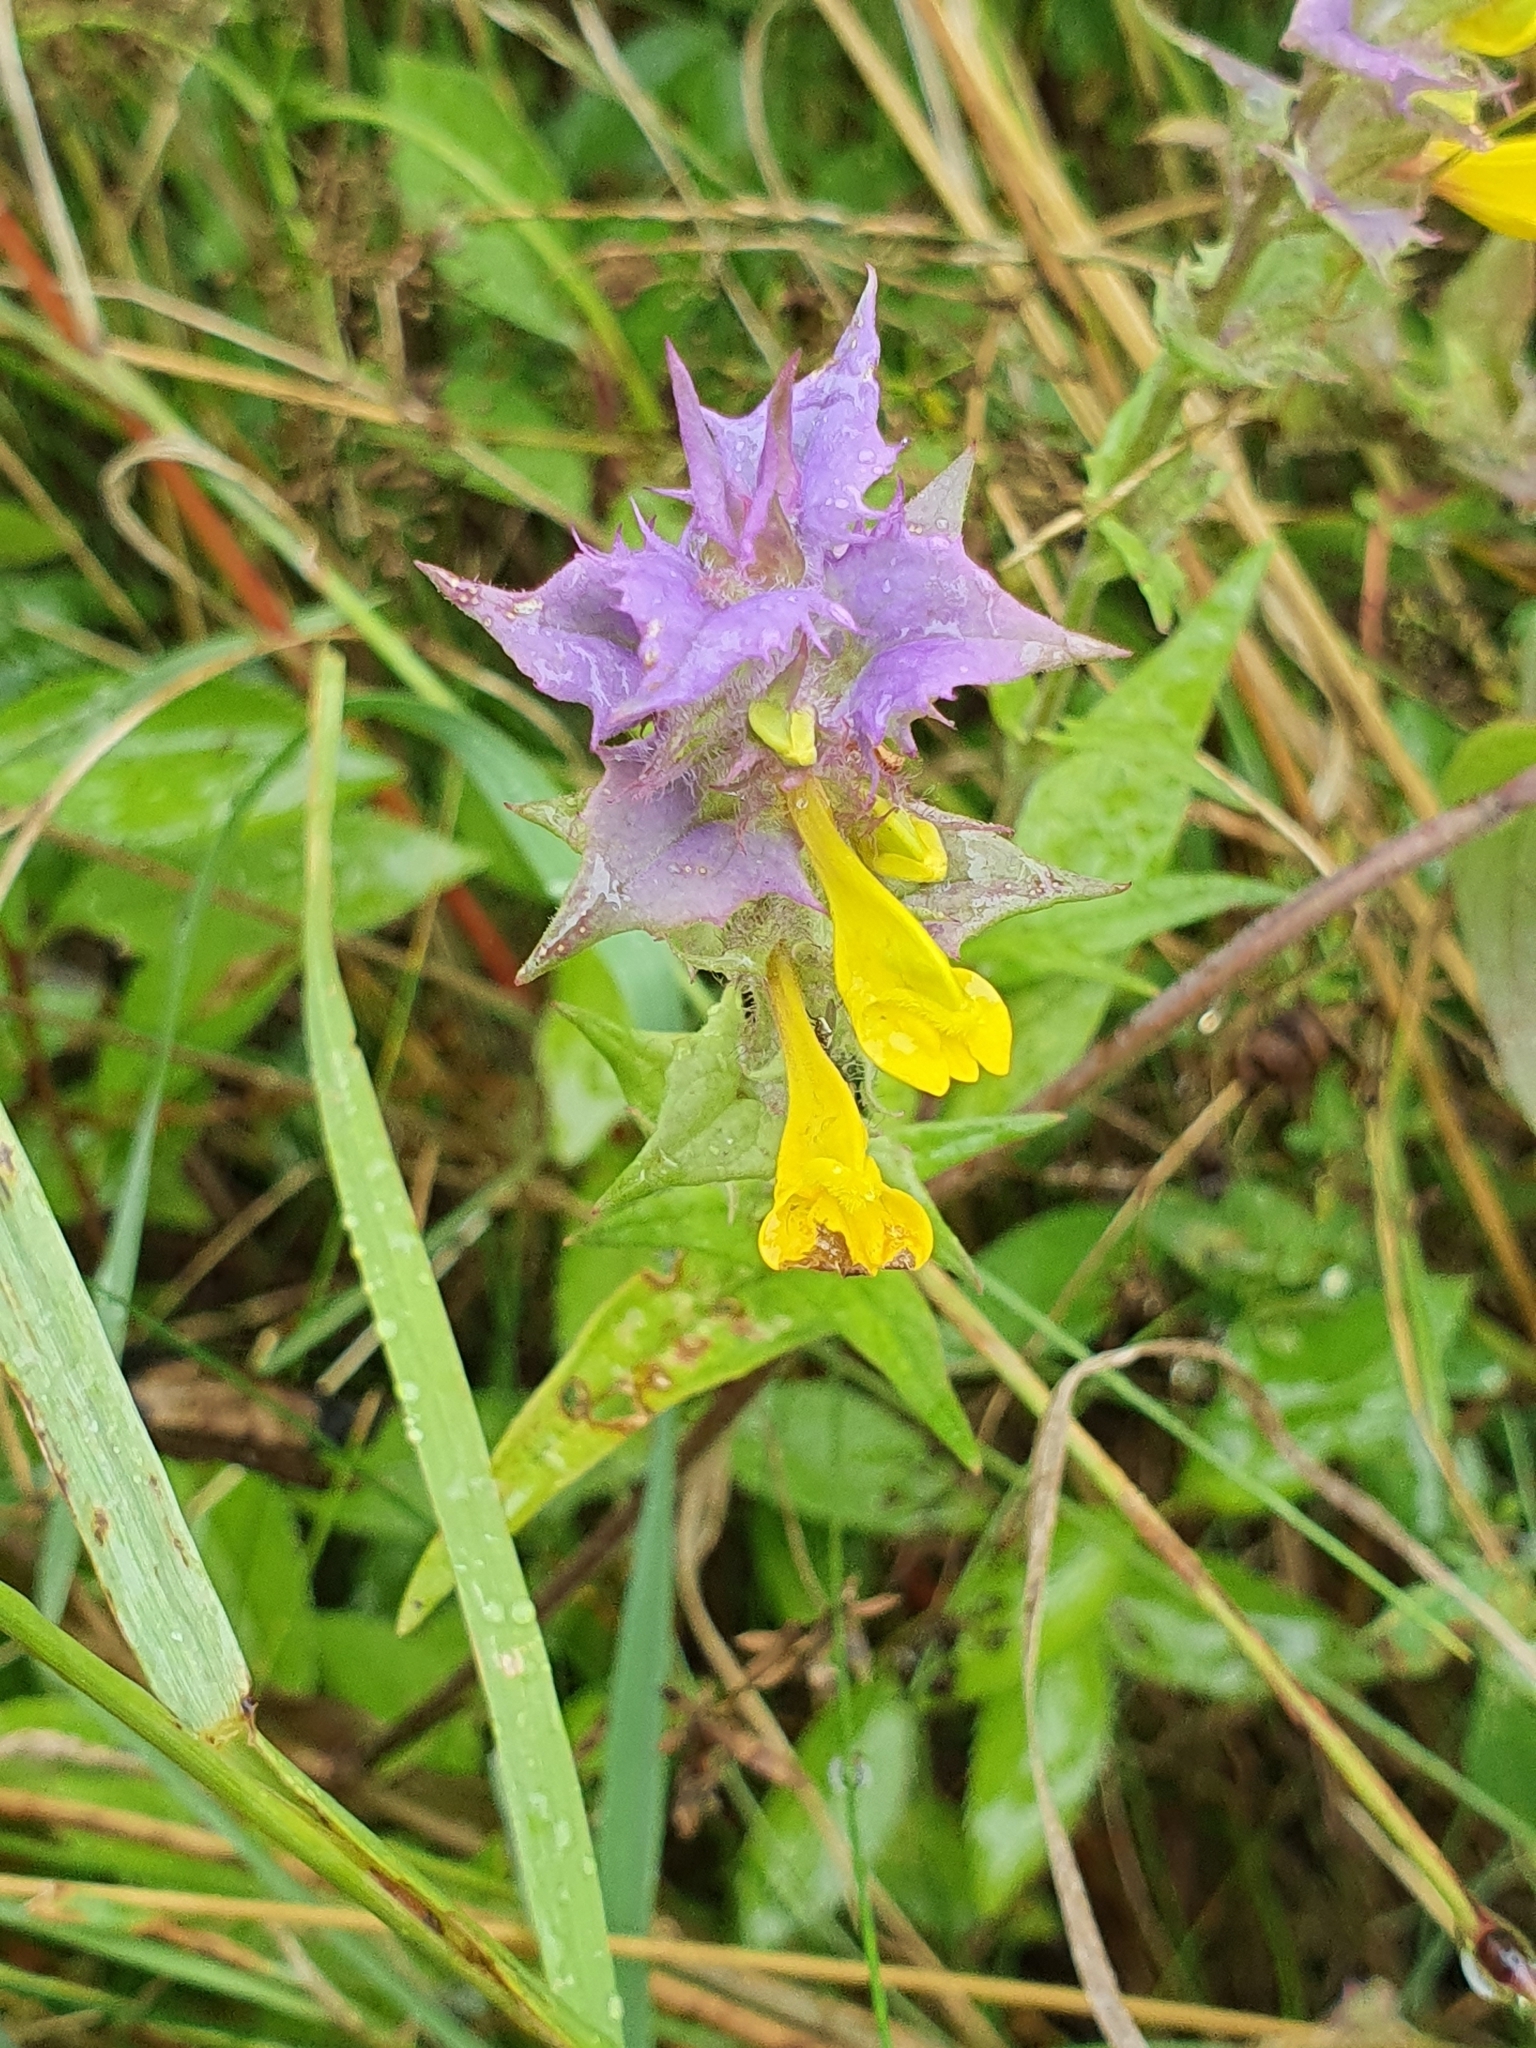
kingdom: Plantae
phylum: Tracheophyta
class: Magnoliopsida
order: Lamiales
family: Orobanchaceae
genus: Melampyrum
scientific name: Melampyrum nemorosum
